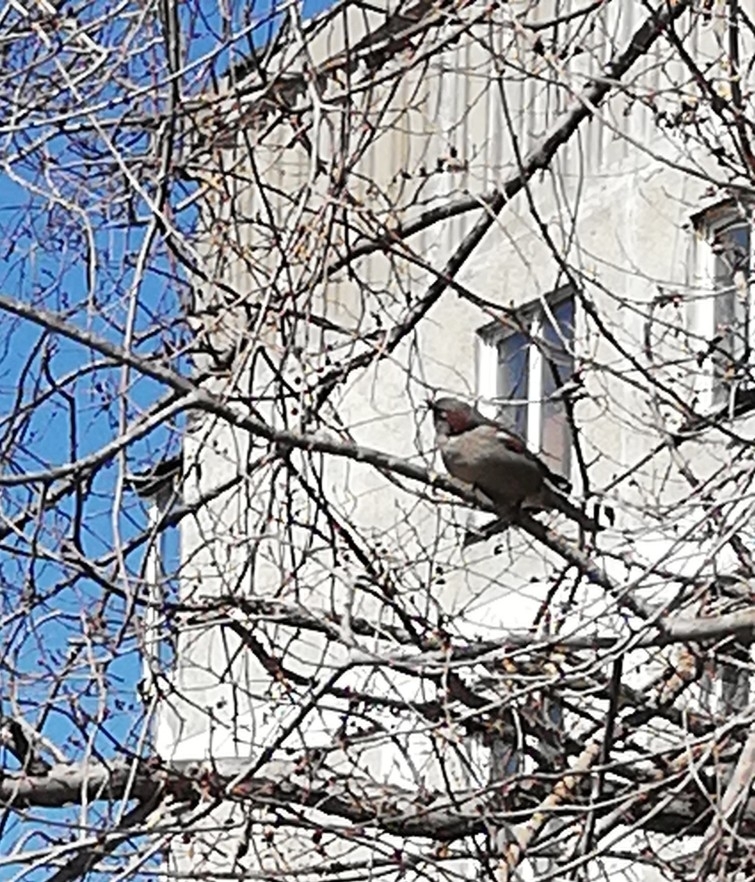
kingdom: Animalia
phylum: Chordata
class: Aves
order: Passeriformes
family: Passeridae
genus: Passer
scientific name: Passer montanus
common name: Eurasian tree sparrow
